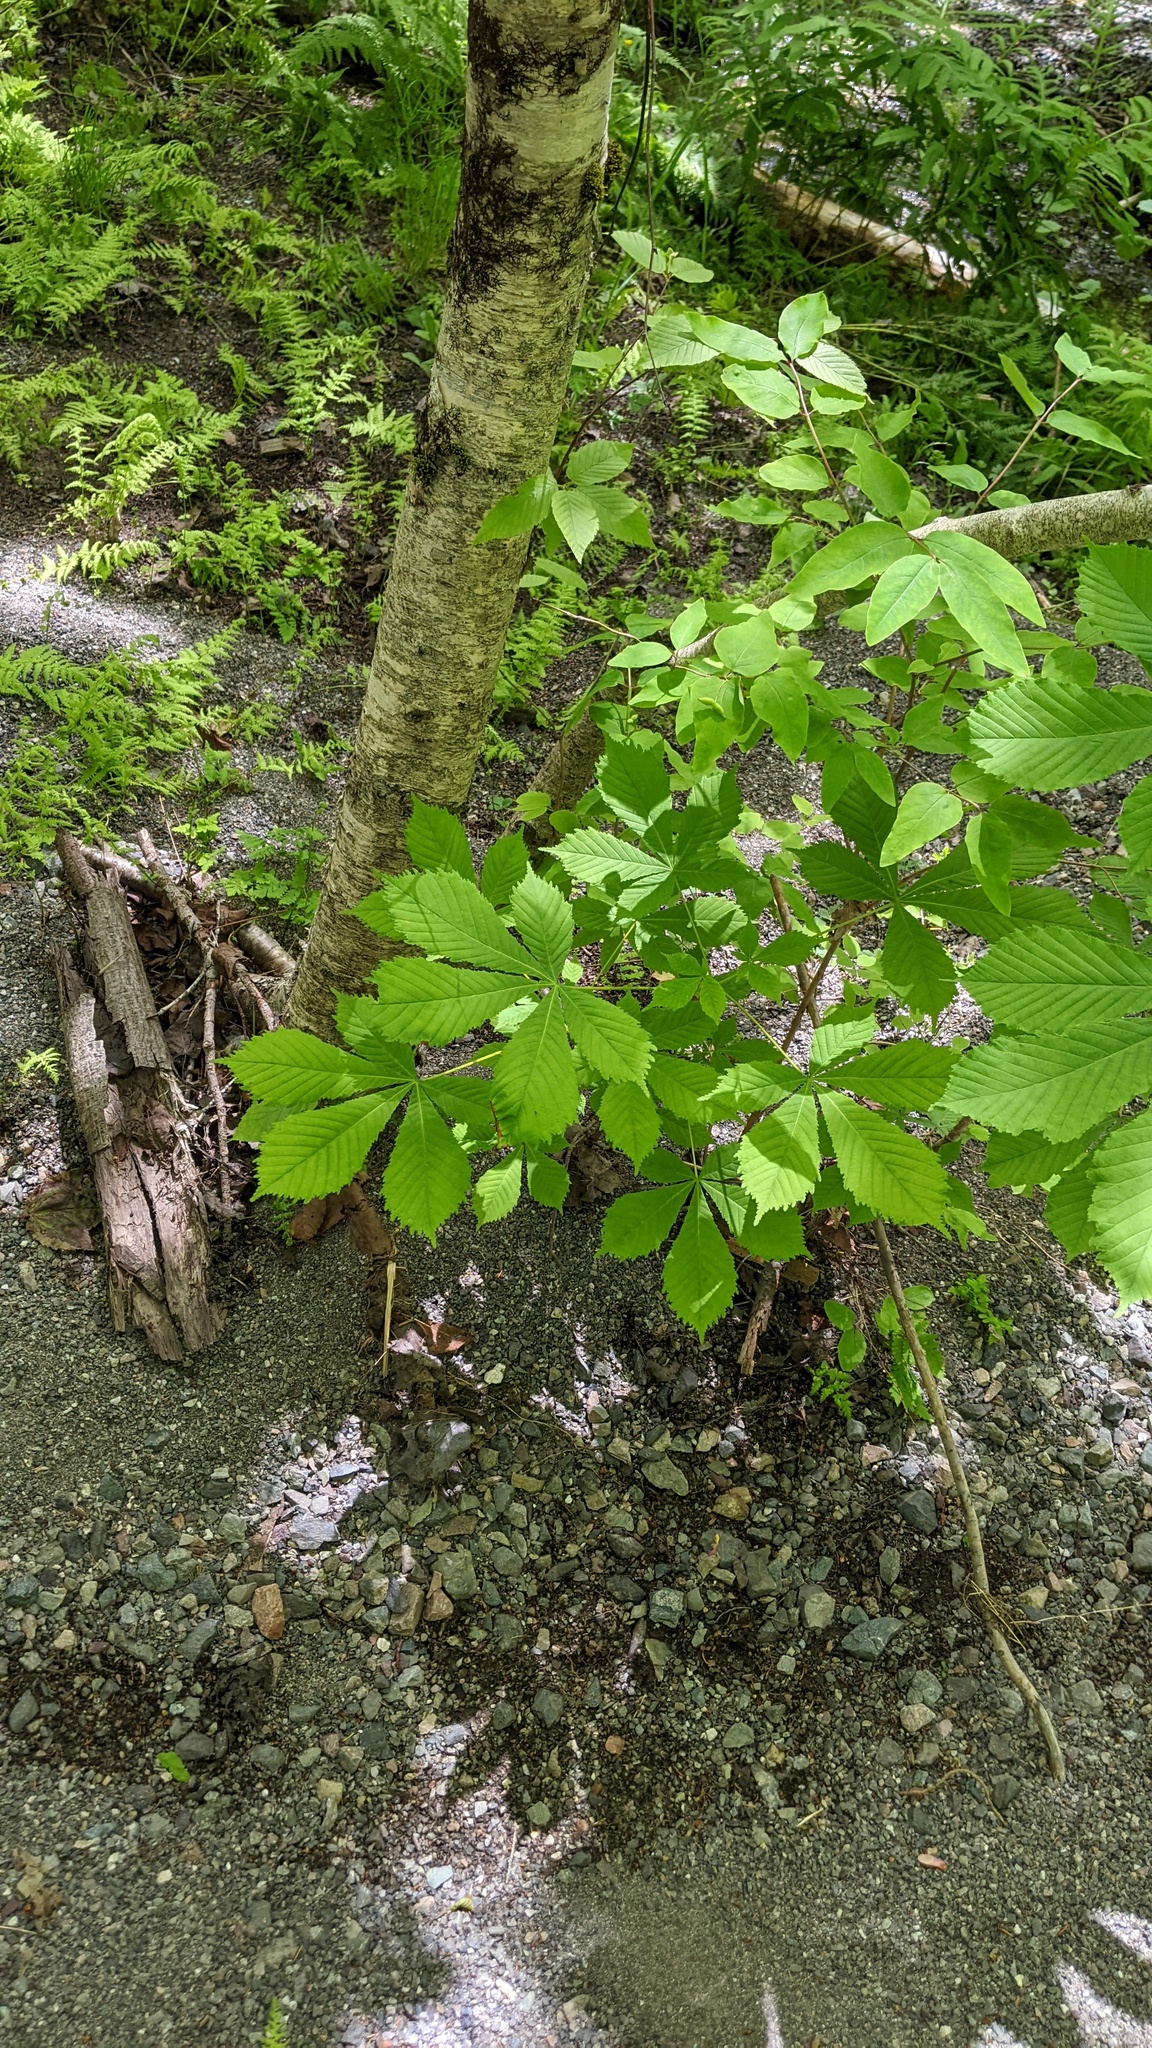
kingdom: Plantae
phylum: Tracheophyta
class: Magnoliopsida
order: Sapindales
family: Sapindaceae
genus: Aesculus
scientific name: Aesculus hippocastanum
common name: Horse-chestnut
